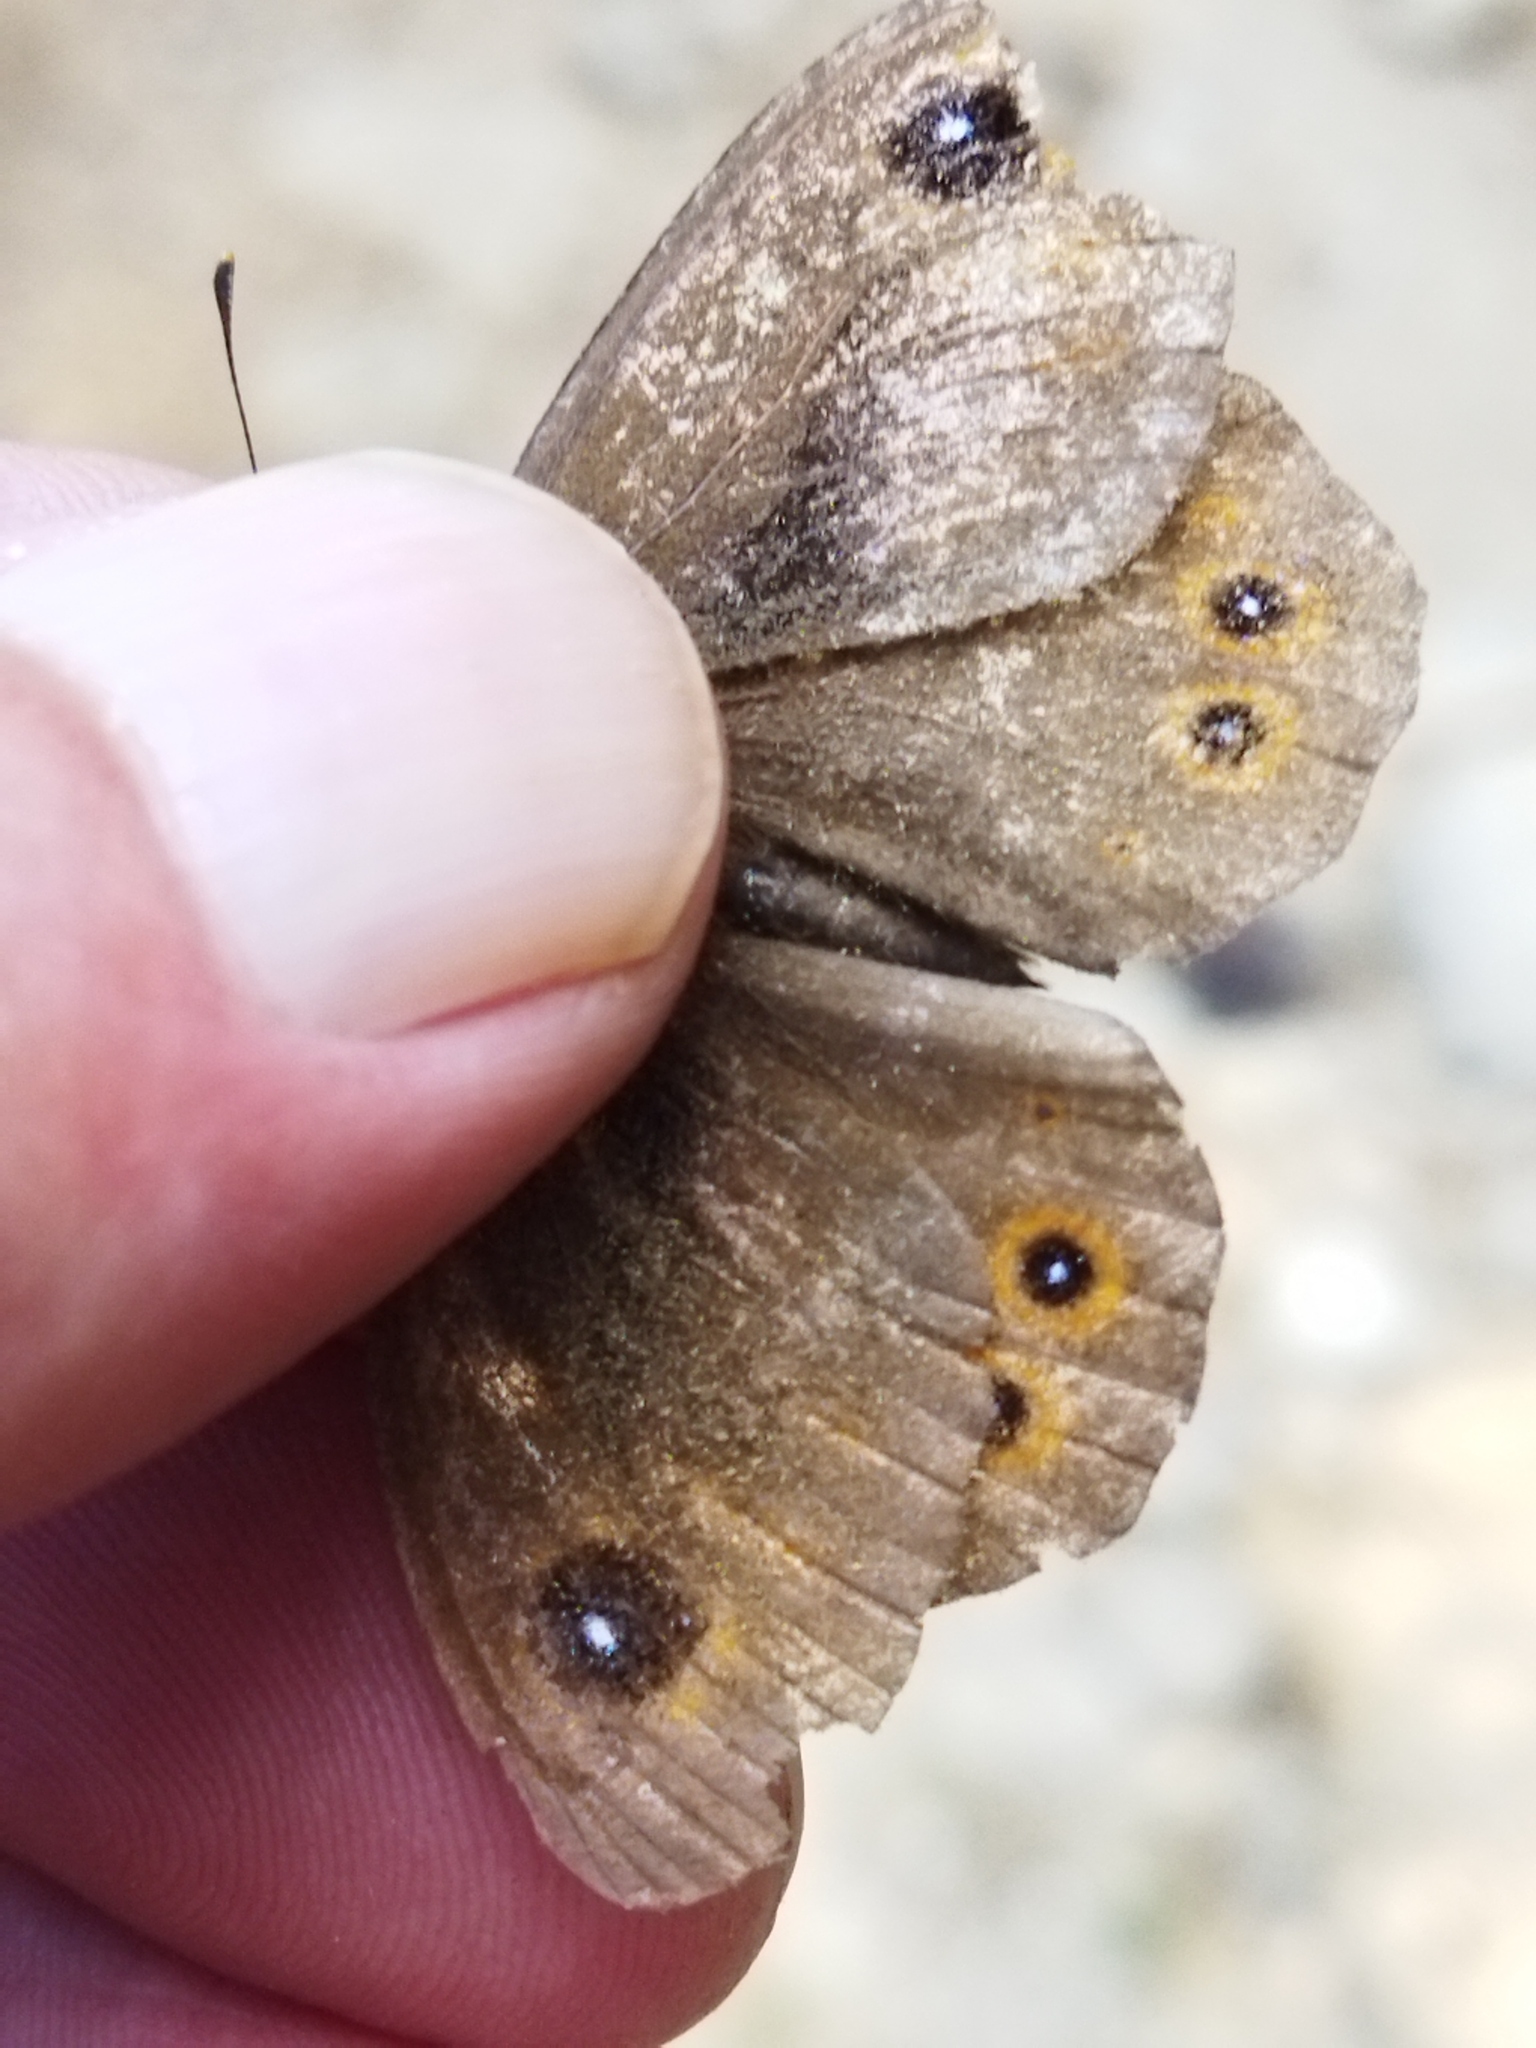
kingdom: Animalia
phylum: Arthropoda
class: Insecta
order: Lepidoptera
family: Nymphalidae
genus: Pararge
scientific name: Pararge Lasiommata maera
